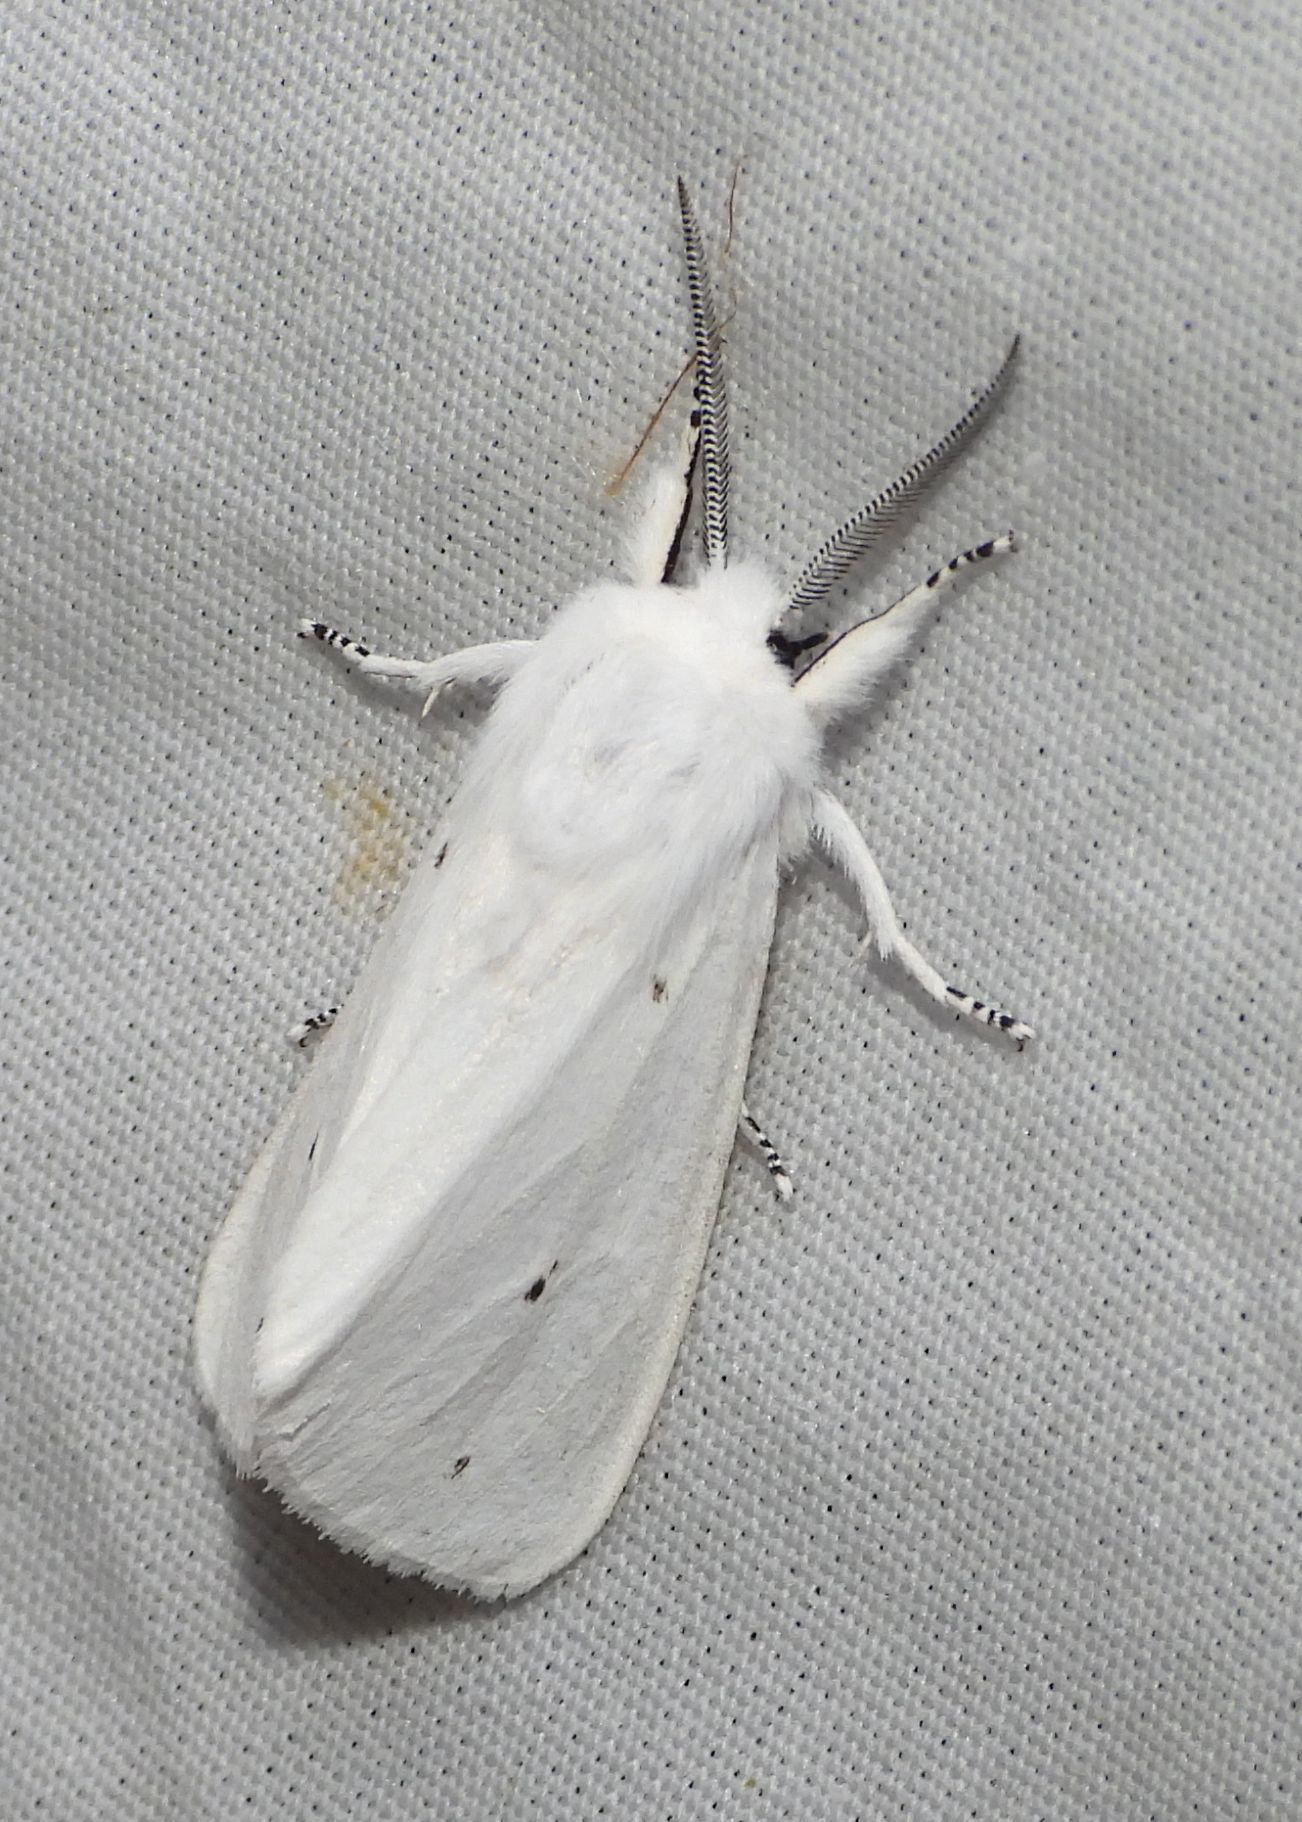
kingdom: Animalia
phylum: Arthropoda
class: Insecta
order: Lepidoptera
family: Erebidae
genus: Spilosoma
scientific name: Spilosoma virginica
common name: Virginia tiger moth
